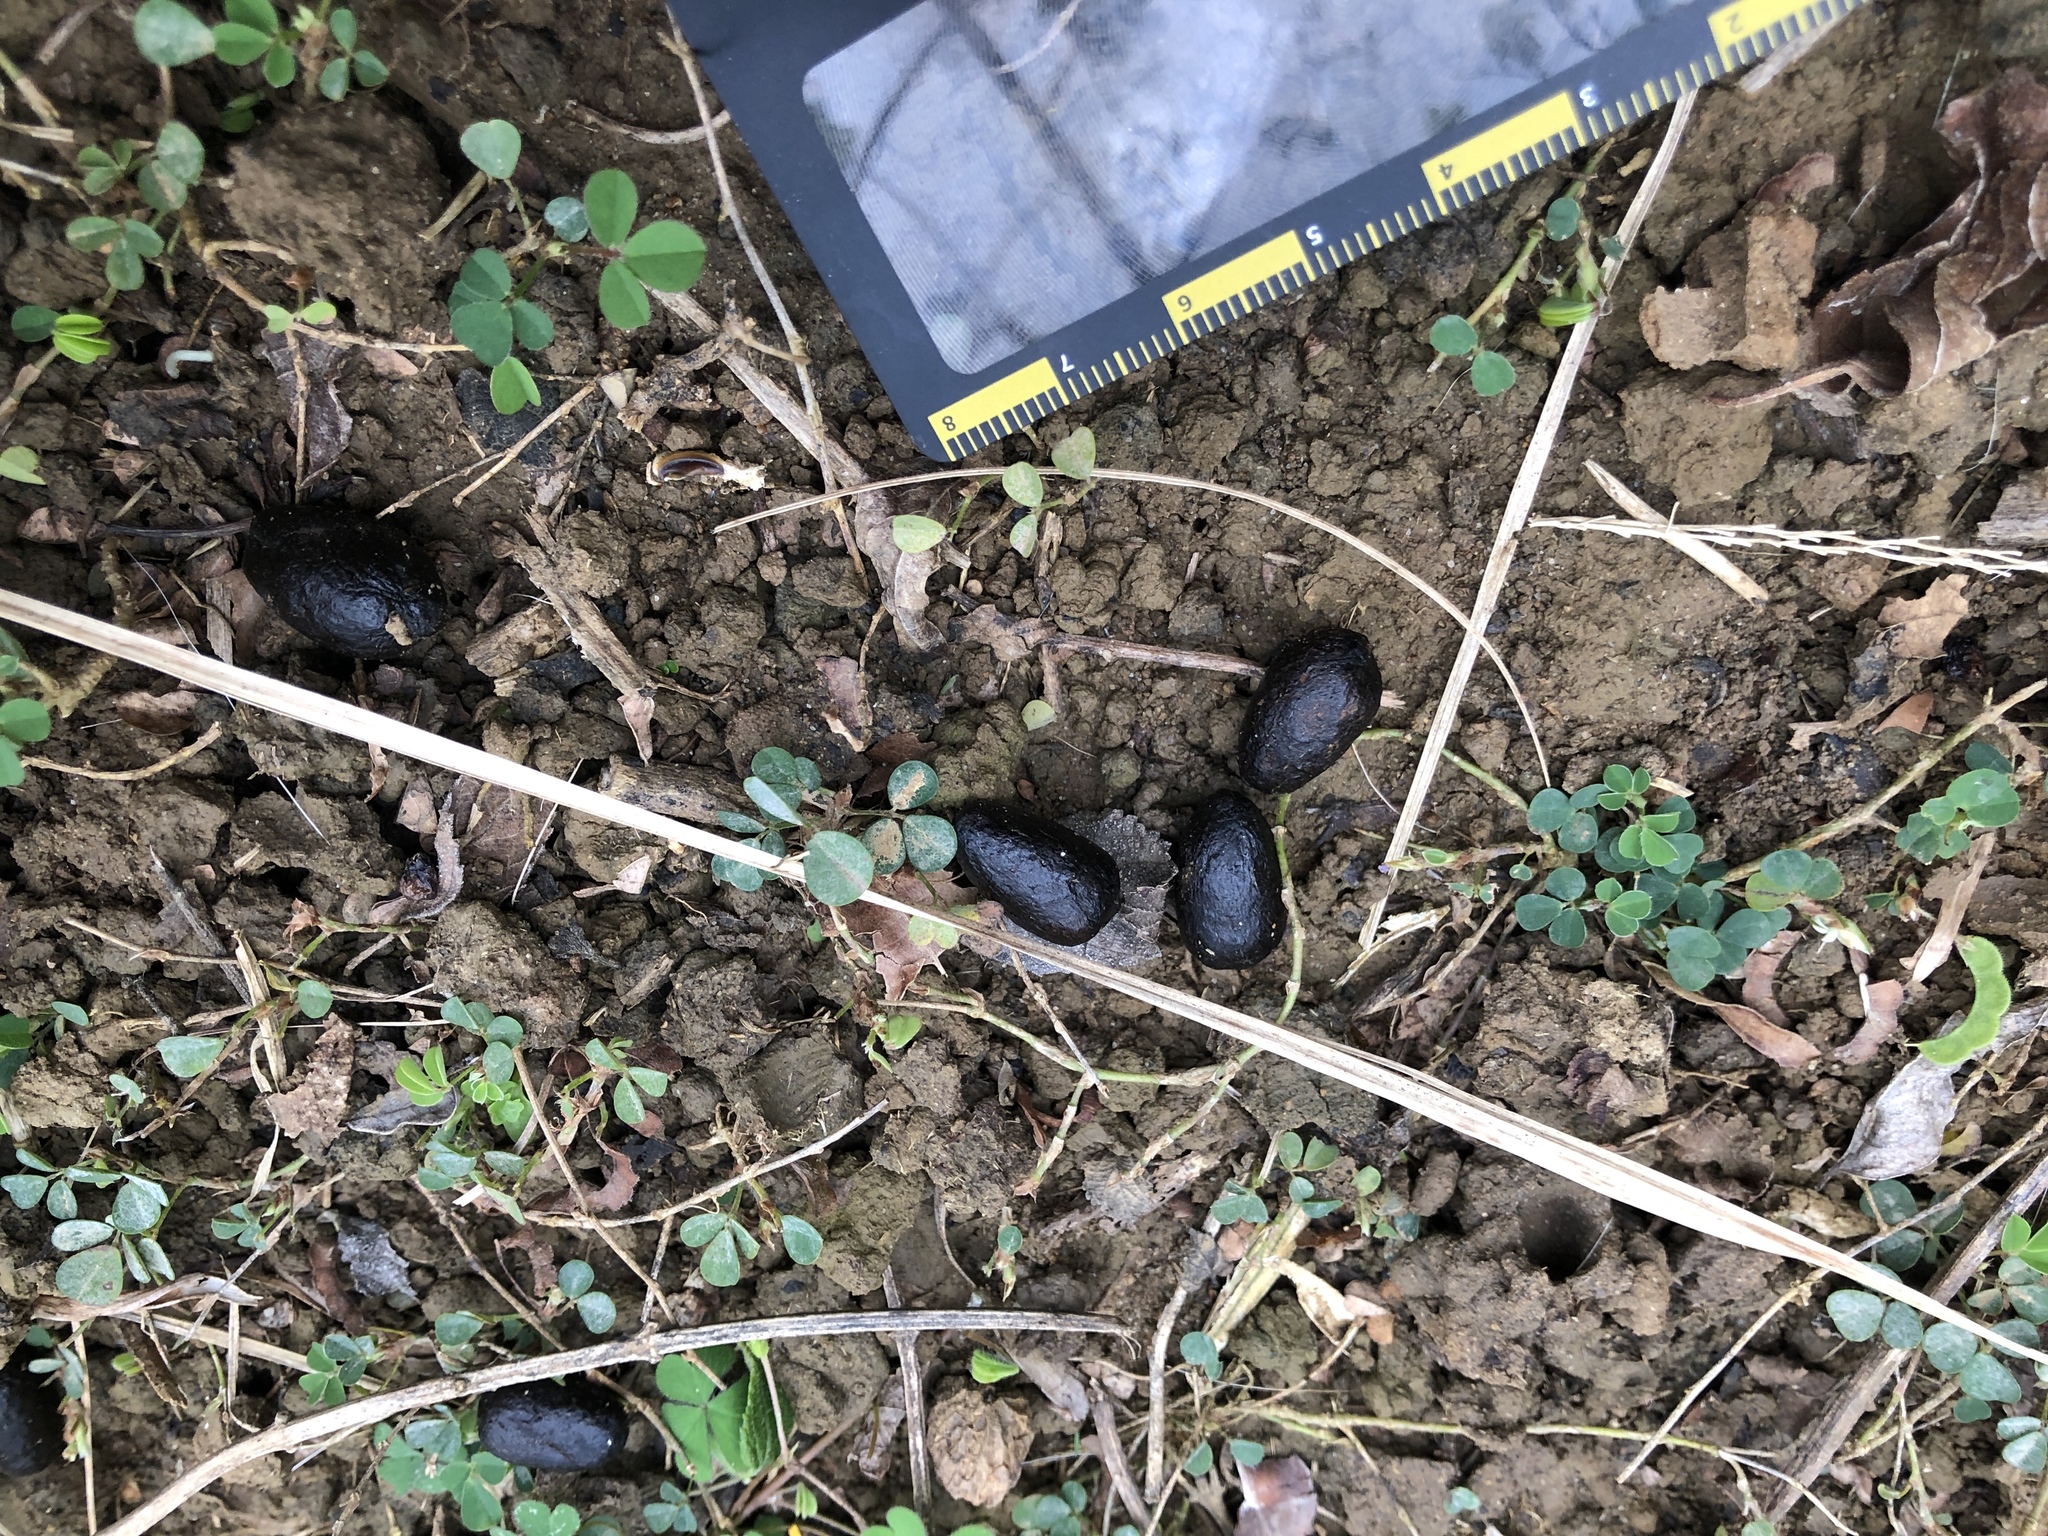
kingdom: Animalia
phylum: Chordata
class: Mammalia
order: Artiodactyla
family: Cervidae
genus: Cervus
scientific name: Cervus nippon
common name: Sika deer
